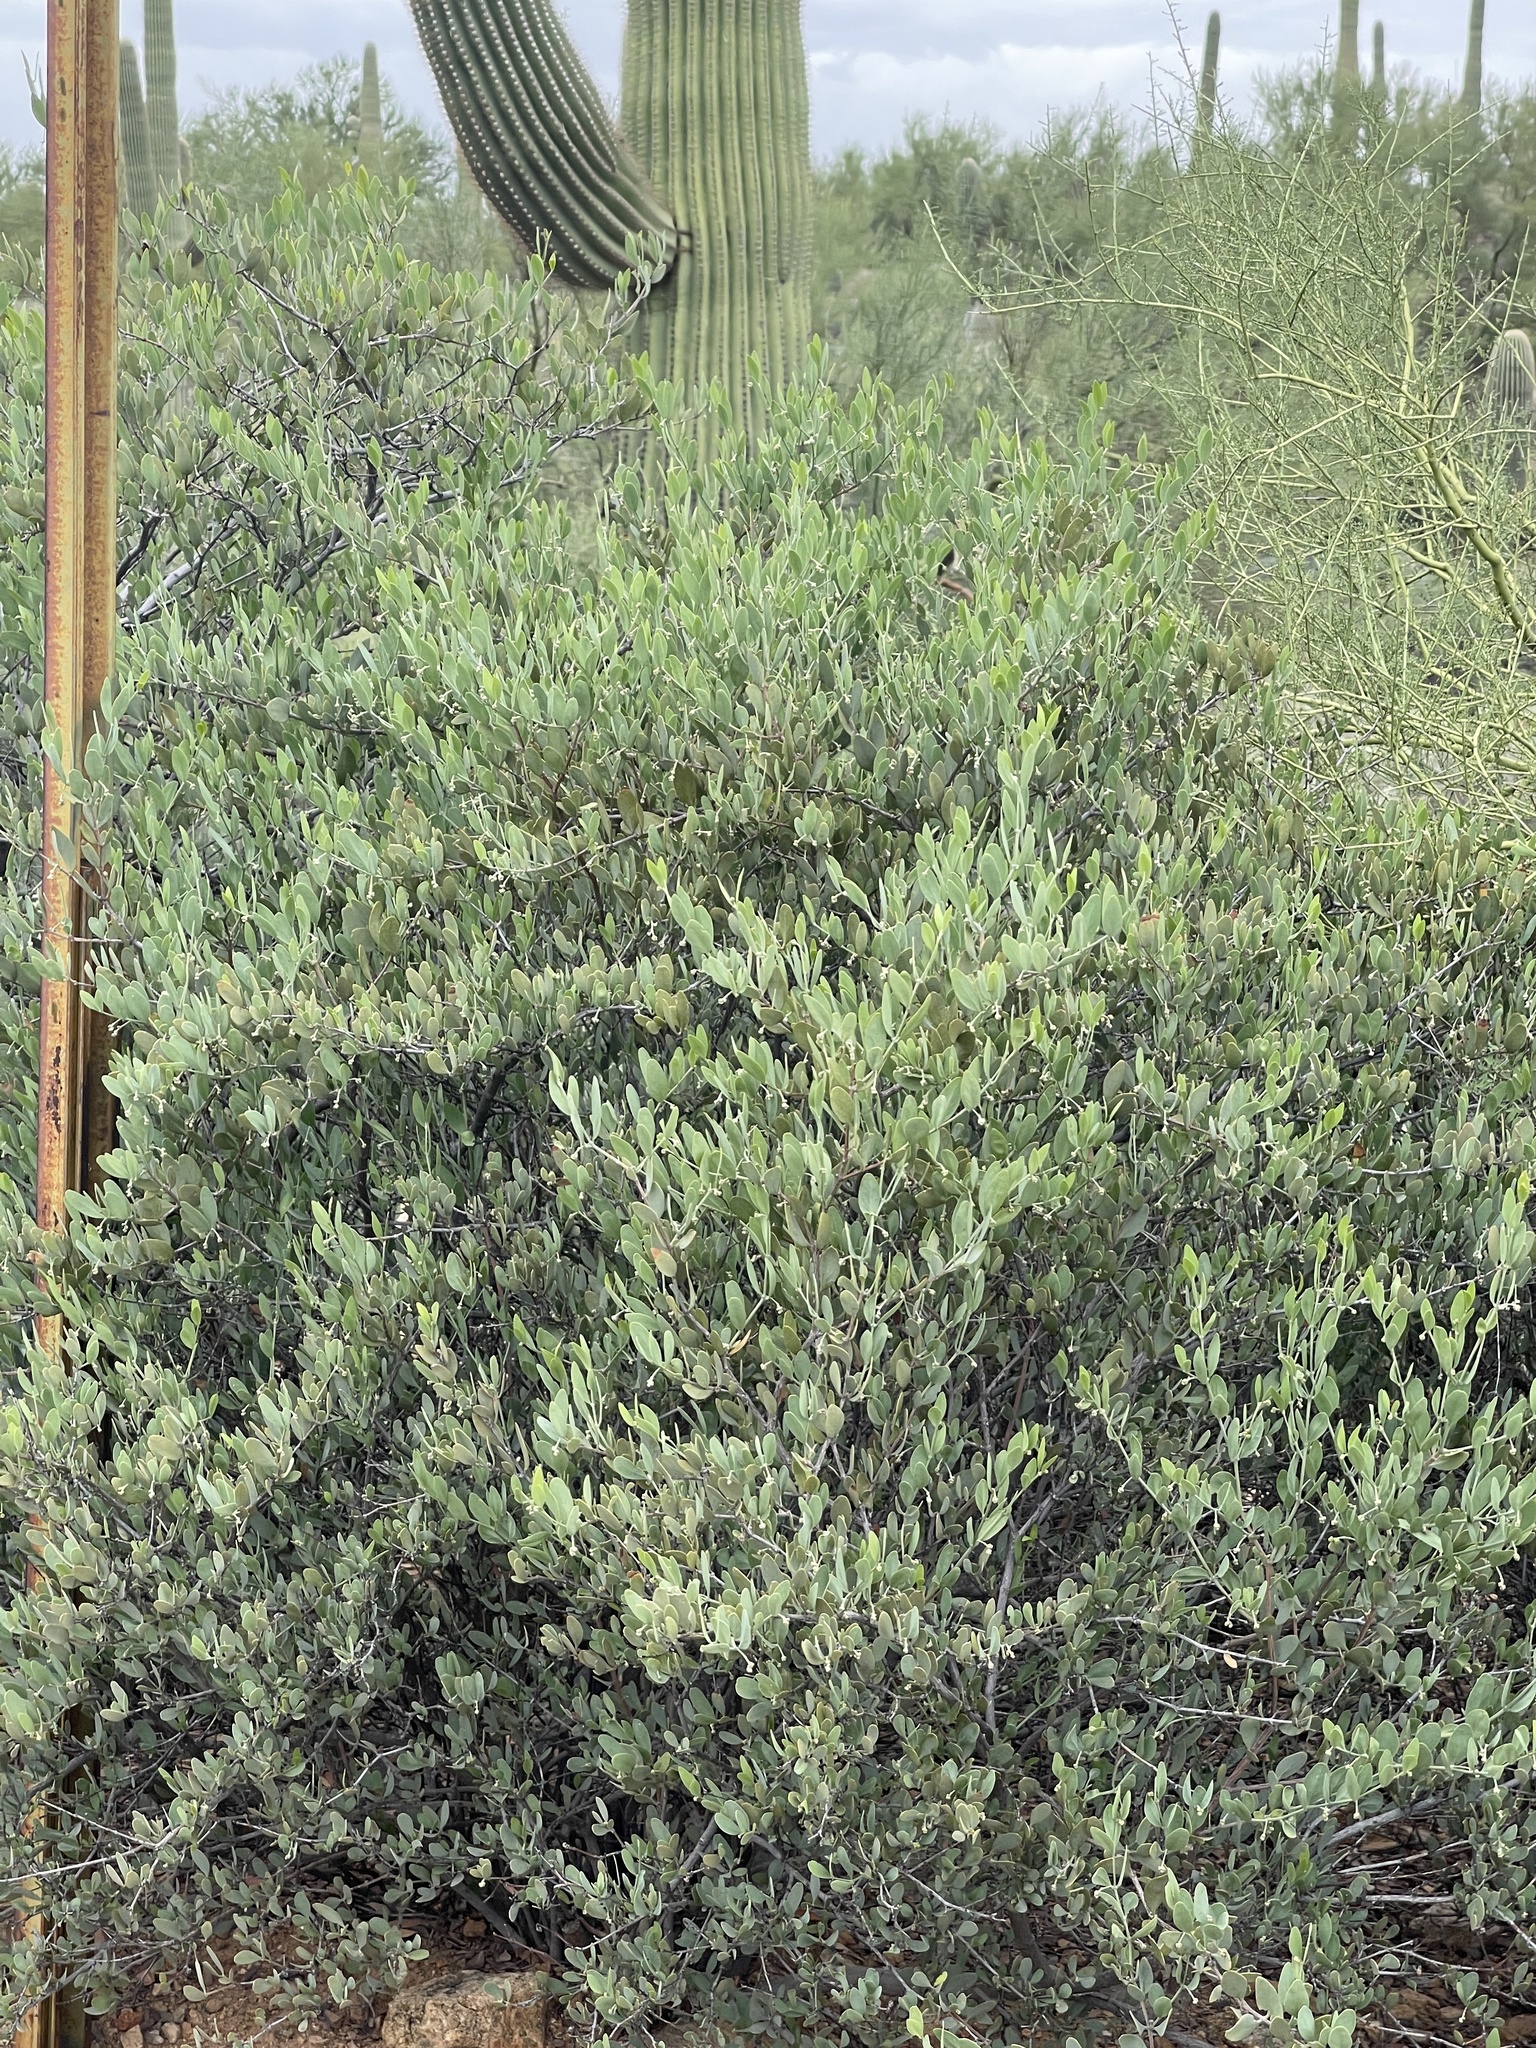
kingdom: Plantae
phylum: Tracheophyta
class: Magnoliopsida
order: Caryophyllales
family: Simmondsiaceae
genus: Simmondsia
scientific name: Simmondsia chinensis
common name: Jojoba
